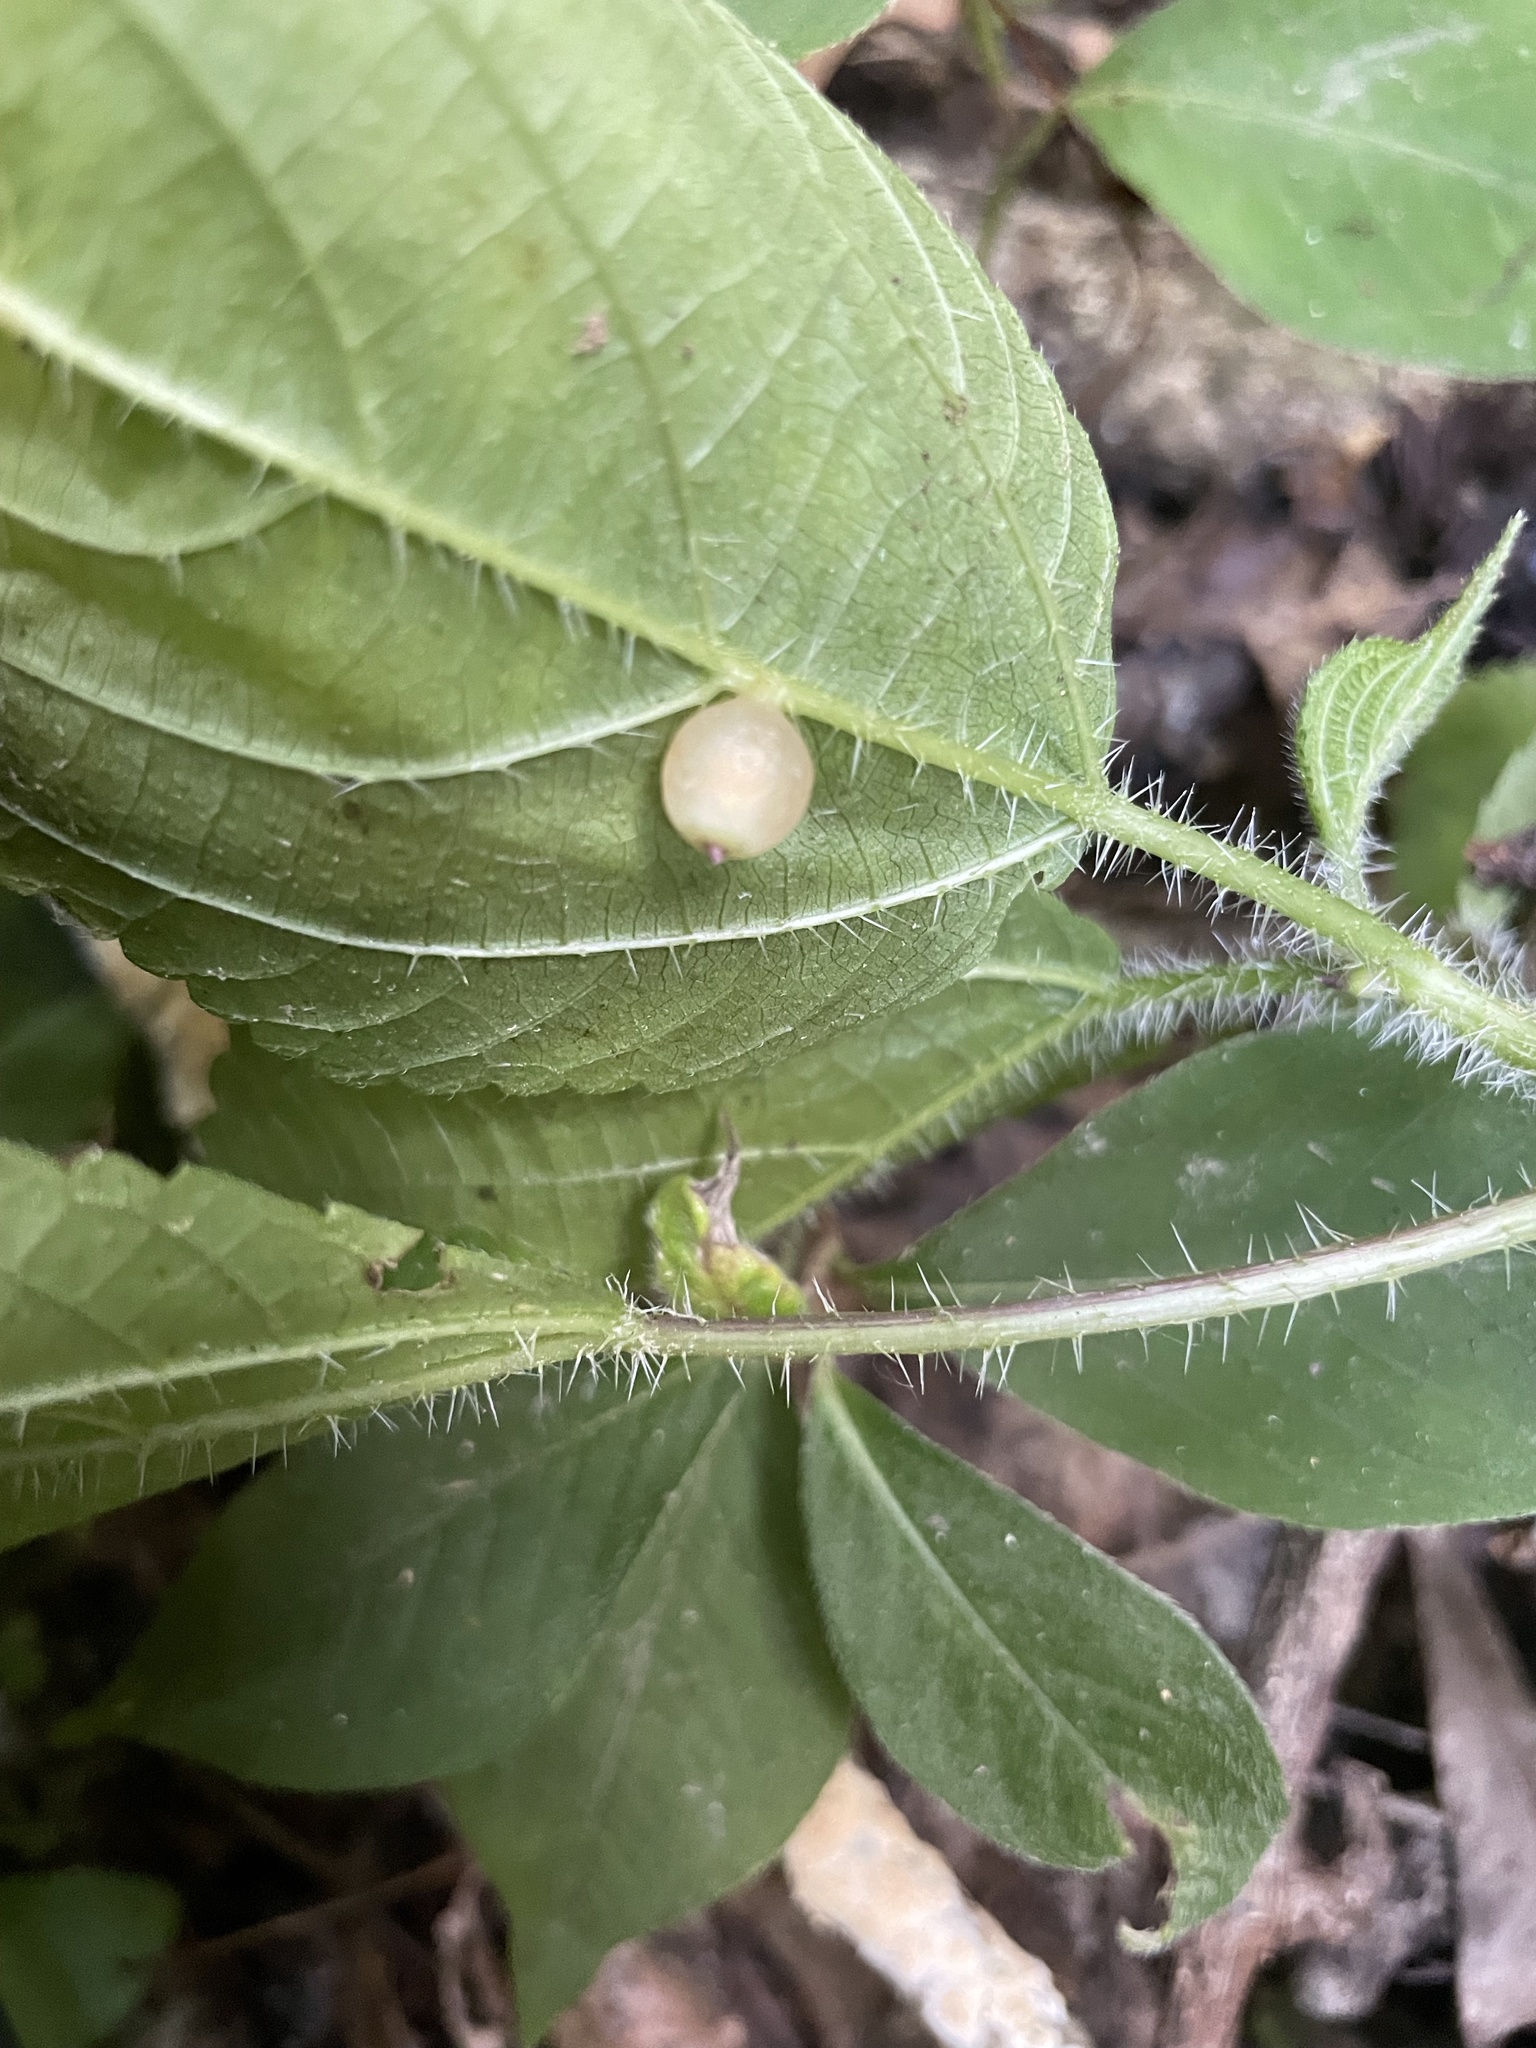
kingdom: Animalia
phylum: Arthropoda
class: Insecta
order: Diptera
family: Cecidomyiidae
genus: Dasineura
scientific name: Dasineura investita
